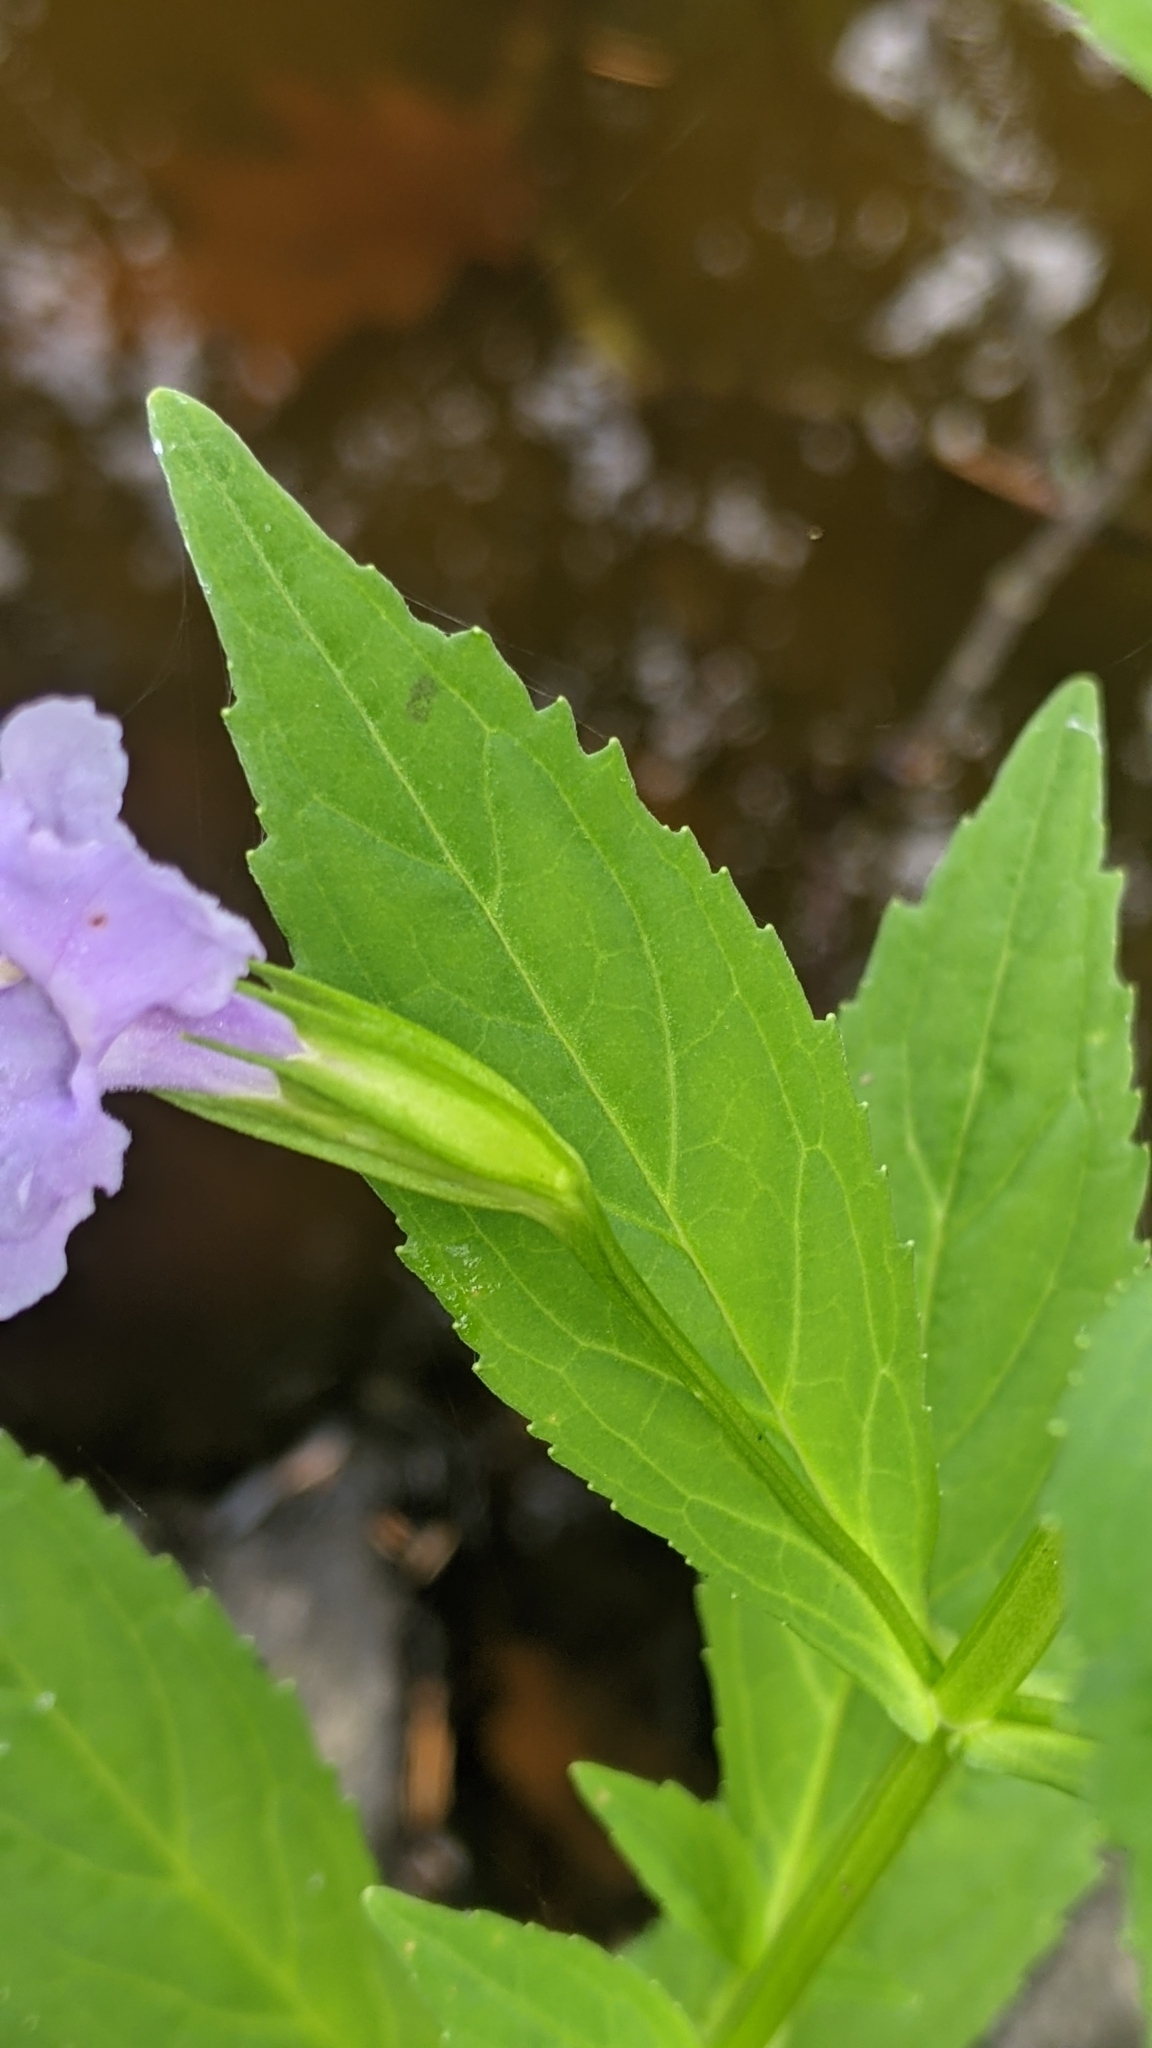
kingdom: Plantae
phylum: Tracheophyta
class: Magnoliopsida
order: Lamiales
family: Phrymaceae
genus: Mimulus
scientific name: Mimulus ringens
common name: Allegheny monkeyflower
